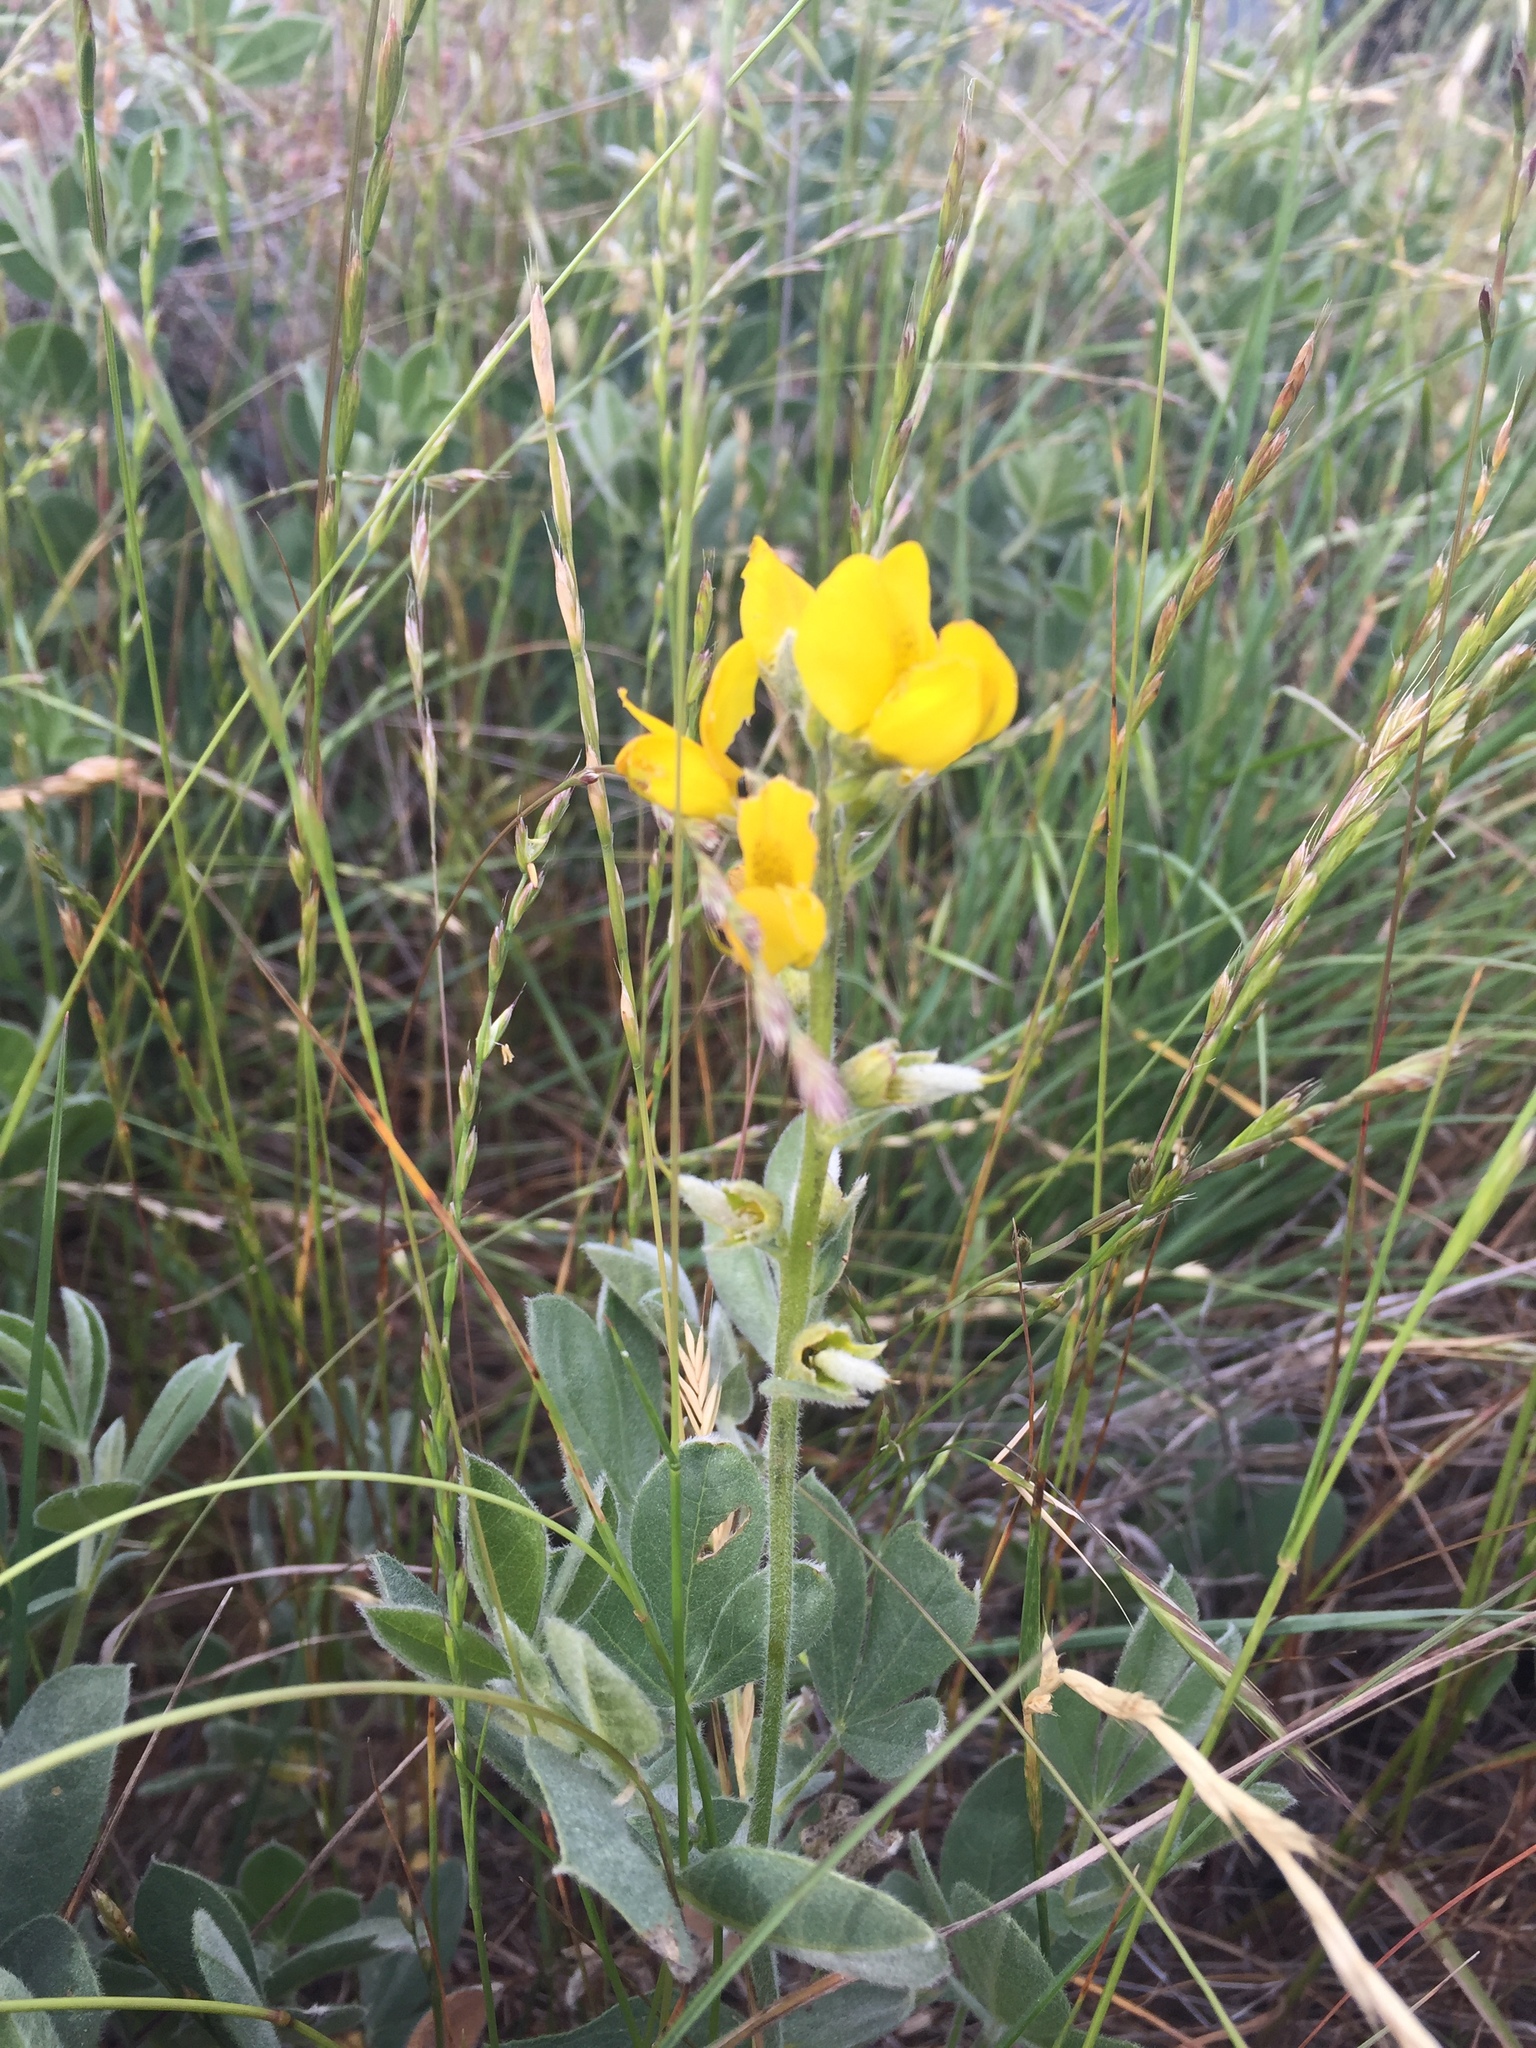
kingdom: Plantae
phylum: Tracheophyta
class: Magnoliopsida
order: Fabales
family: Fabaceae
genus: Thermopsis
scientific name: Thermopsis californica
